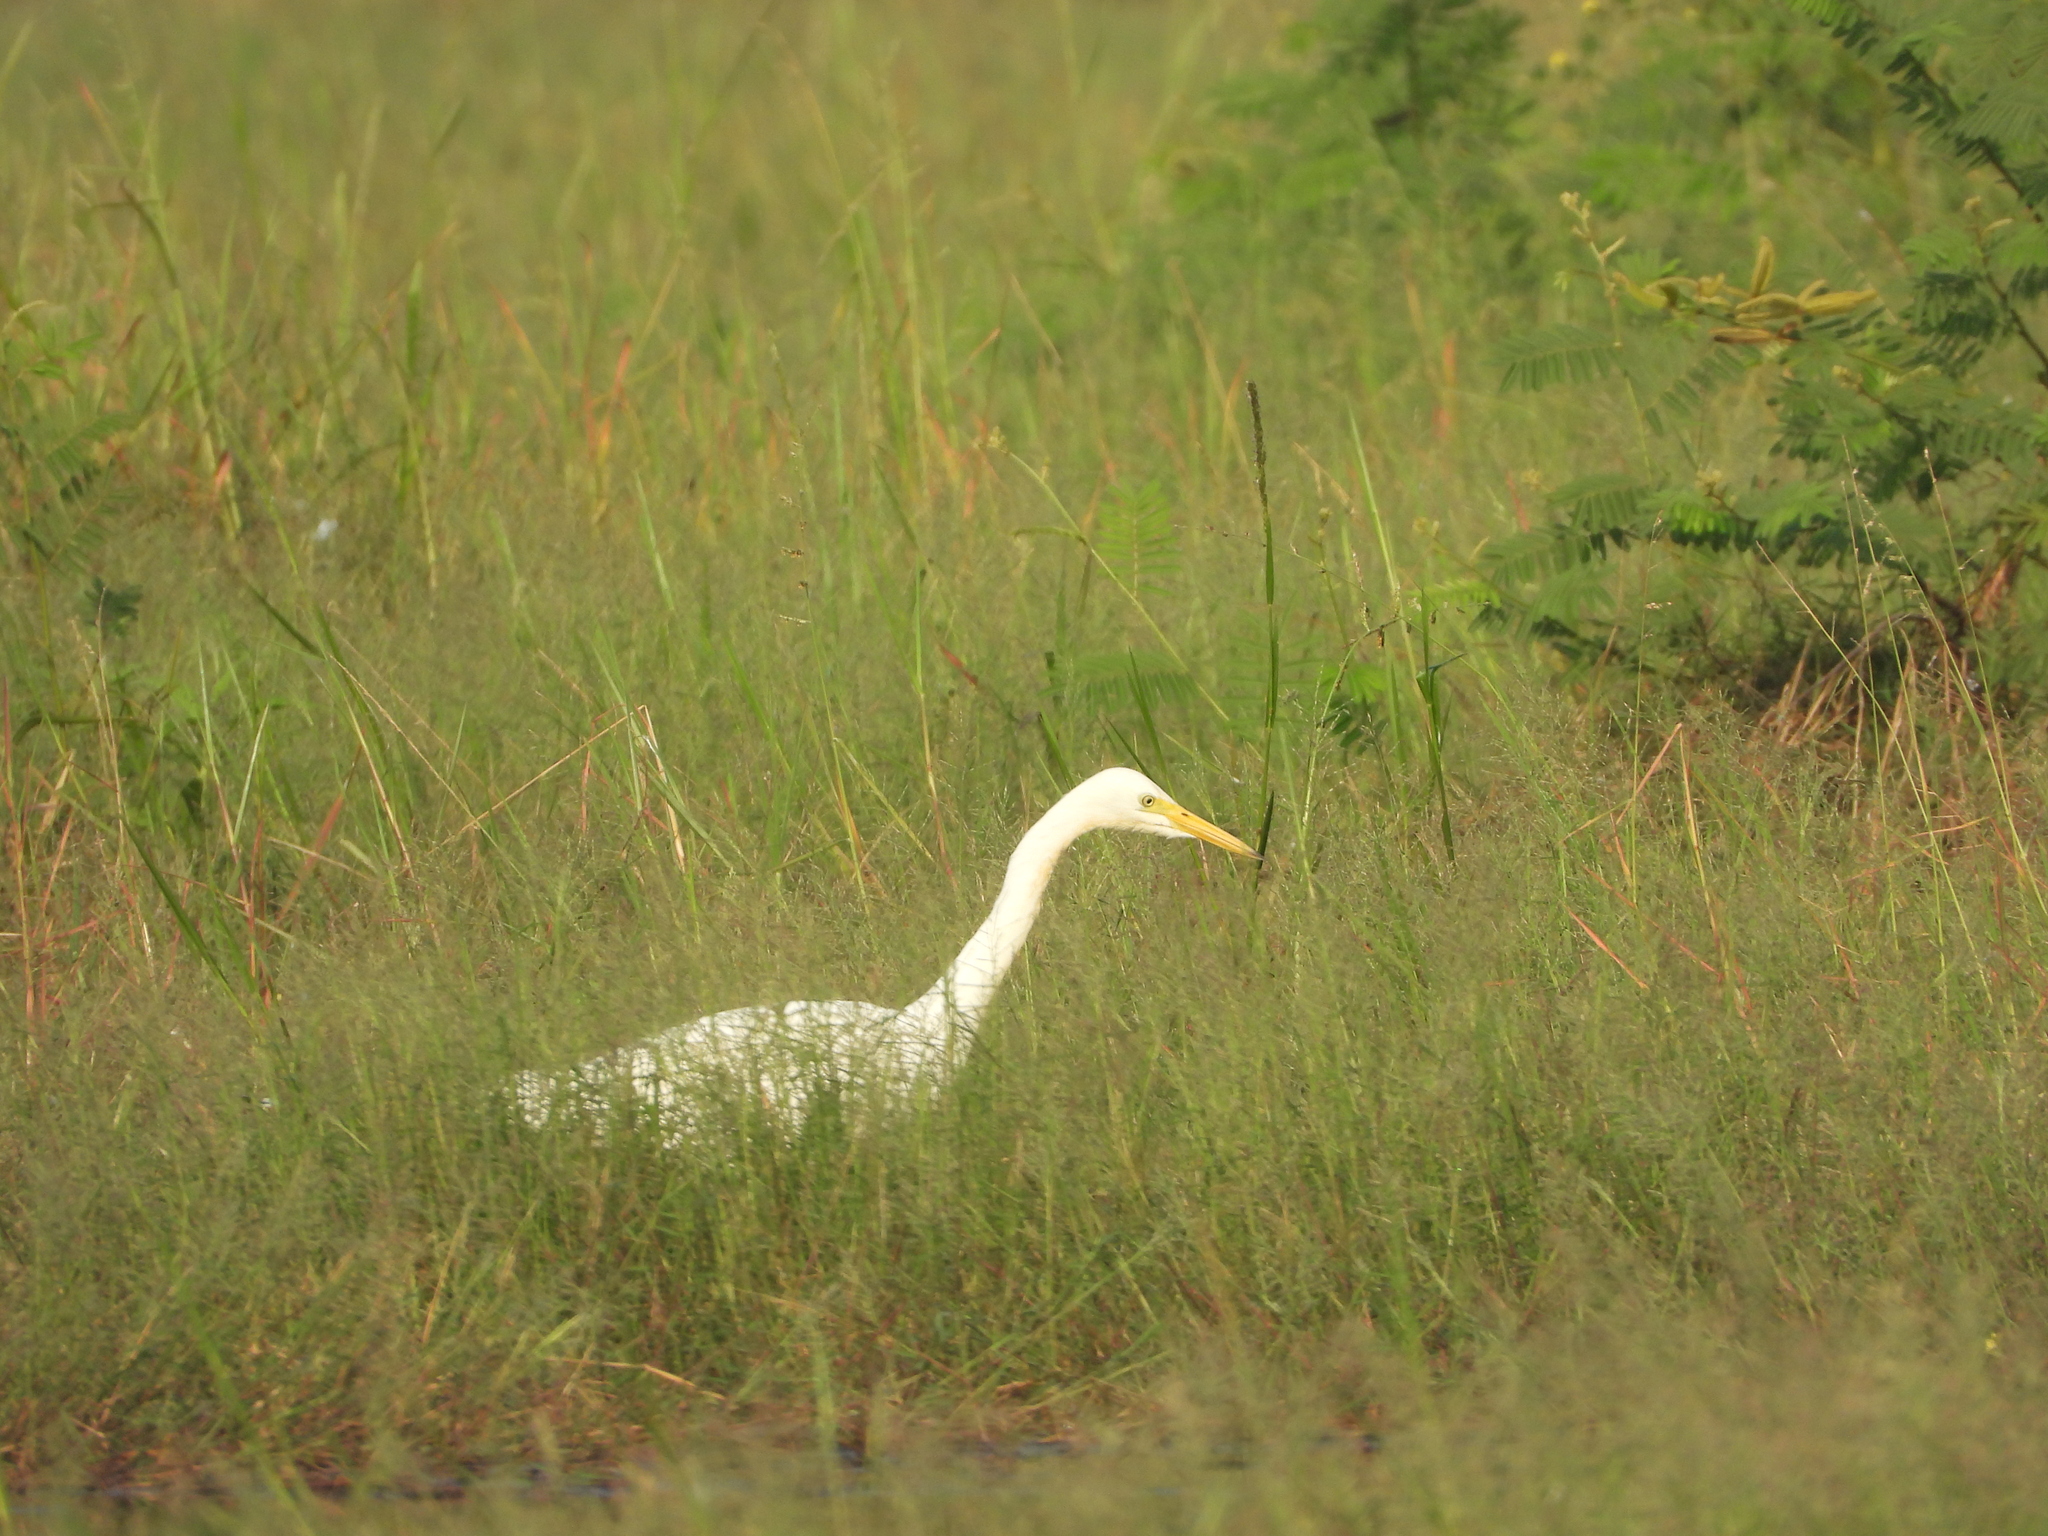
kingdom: Animalia
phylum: Chordata
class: Aves
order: Pelecaniformes
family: Ardeidae
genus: Egretta
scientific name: Egretta intermedia
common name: Intermediate egret
